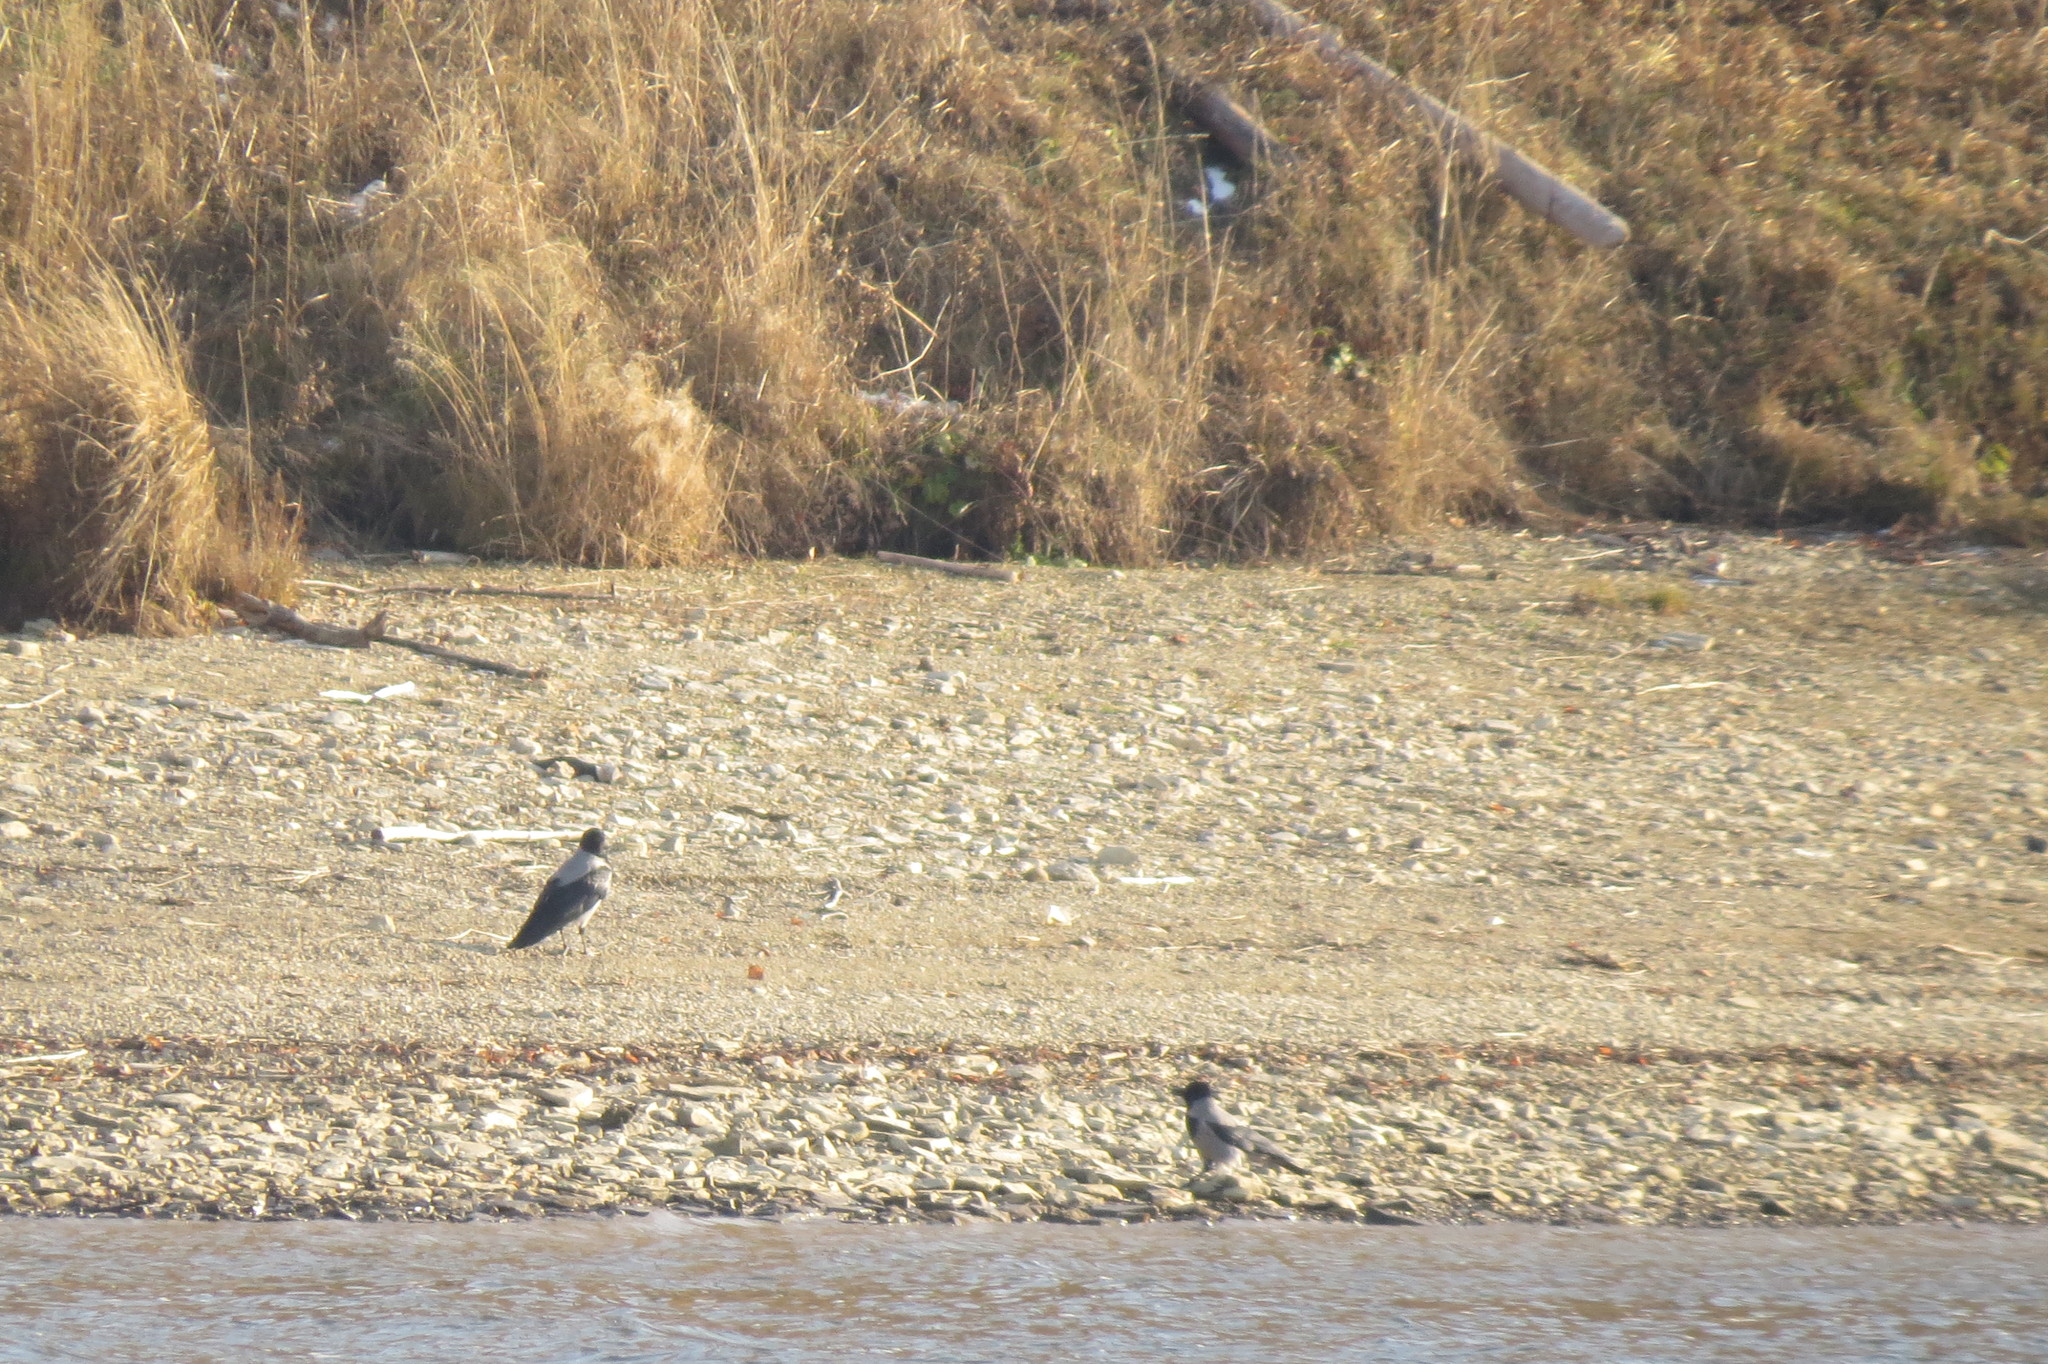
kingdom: Animalia
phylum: Chordata
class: Aves
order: Passeriformes
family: Corvidae
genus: Corvus
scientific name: Corvus cornix
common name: Hooded crow
